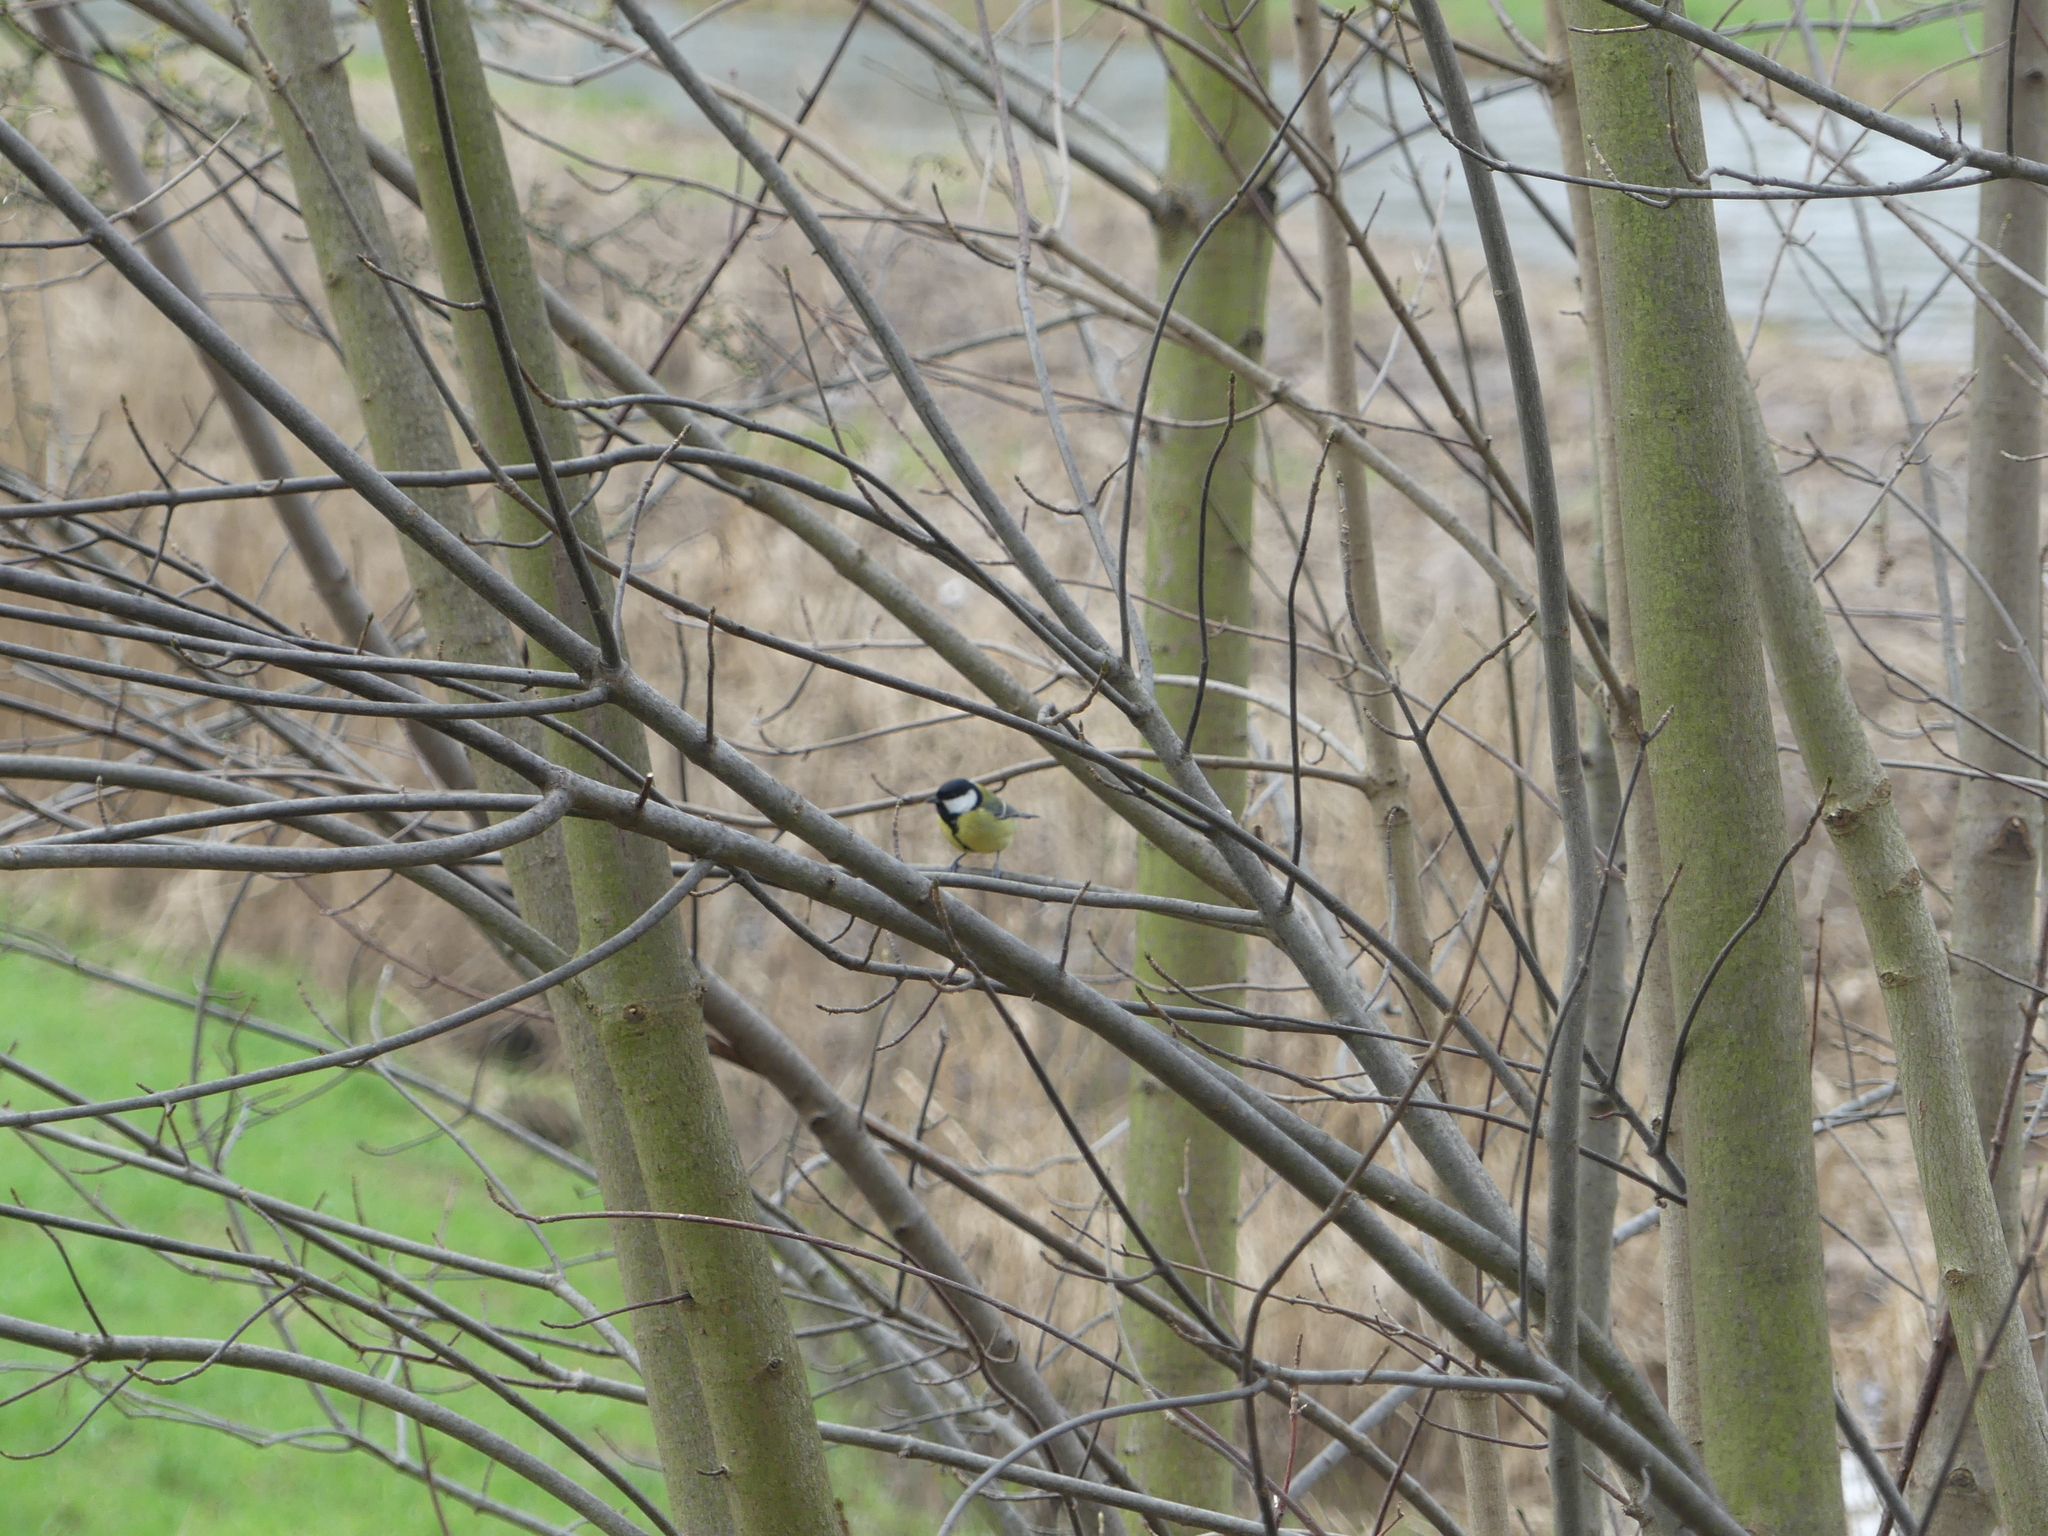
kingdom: Animalia
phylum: Chordata
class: Aves
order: Passeriformes
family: Paridae
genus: Parus
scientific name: Parus major
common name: Great tit
